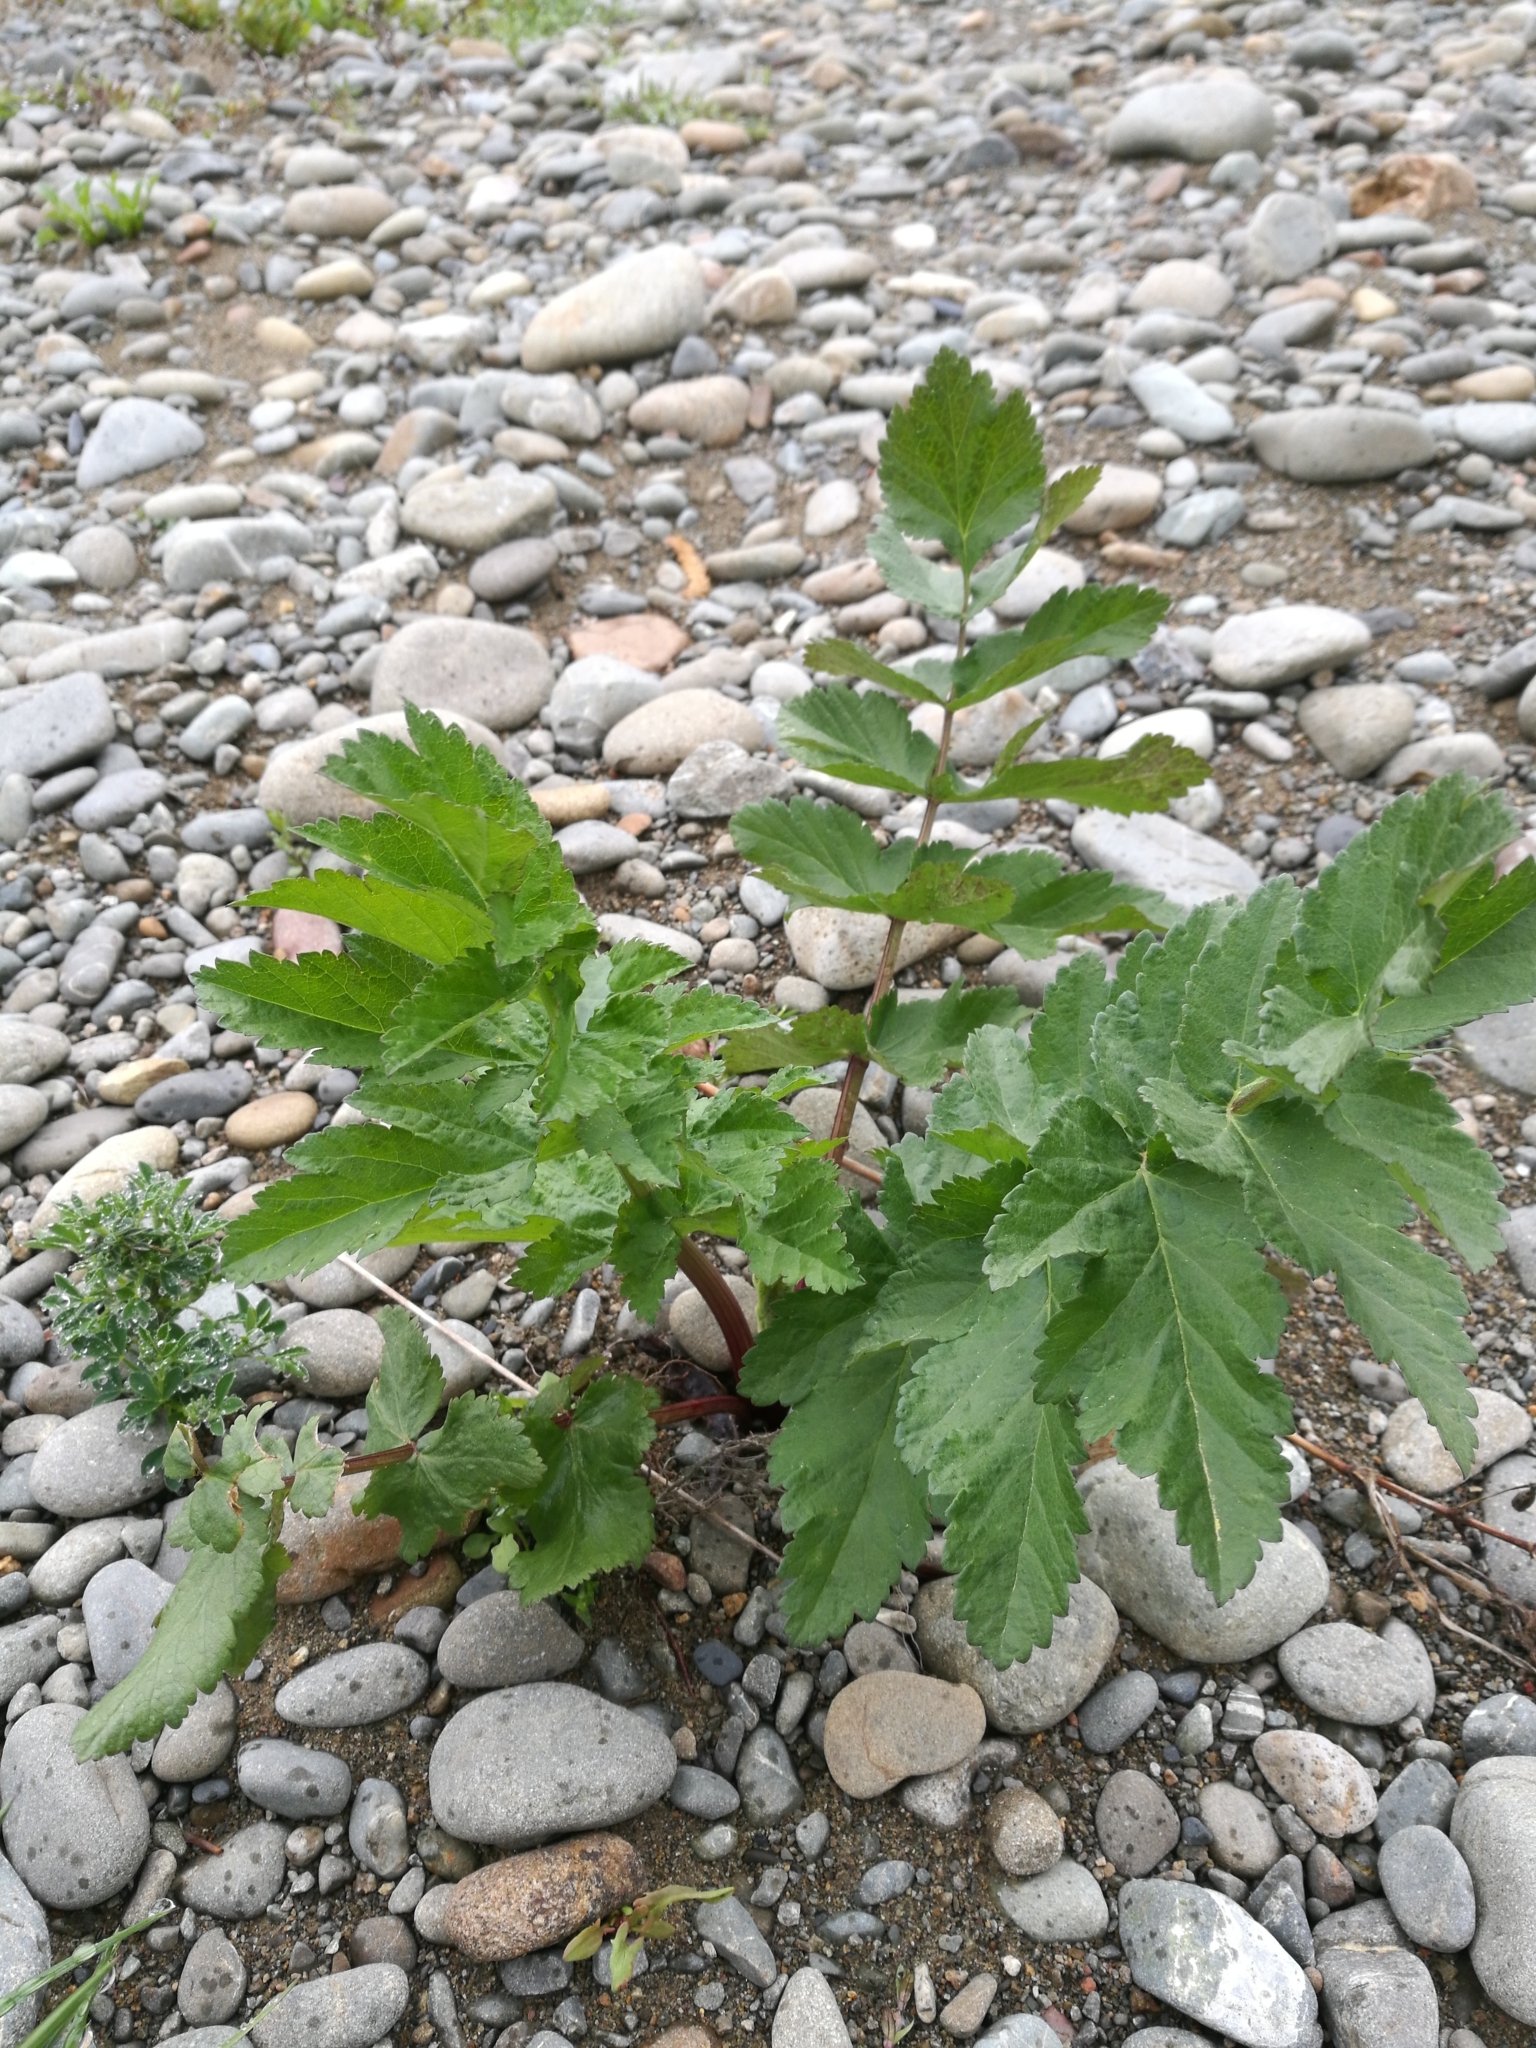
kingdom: Plantae
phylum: Tracheophyta
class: Magnoliopsida
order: Apiales
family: Apiaceae
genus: Pastinaca
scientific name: Pastinaca sativa
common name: Wild parsnip
